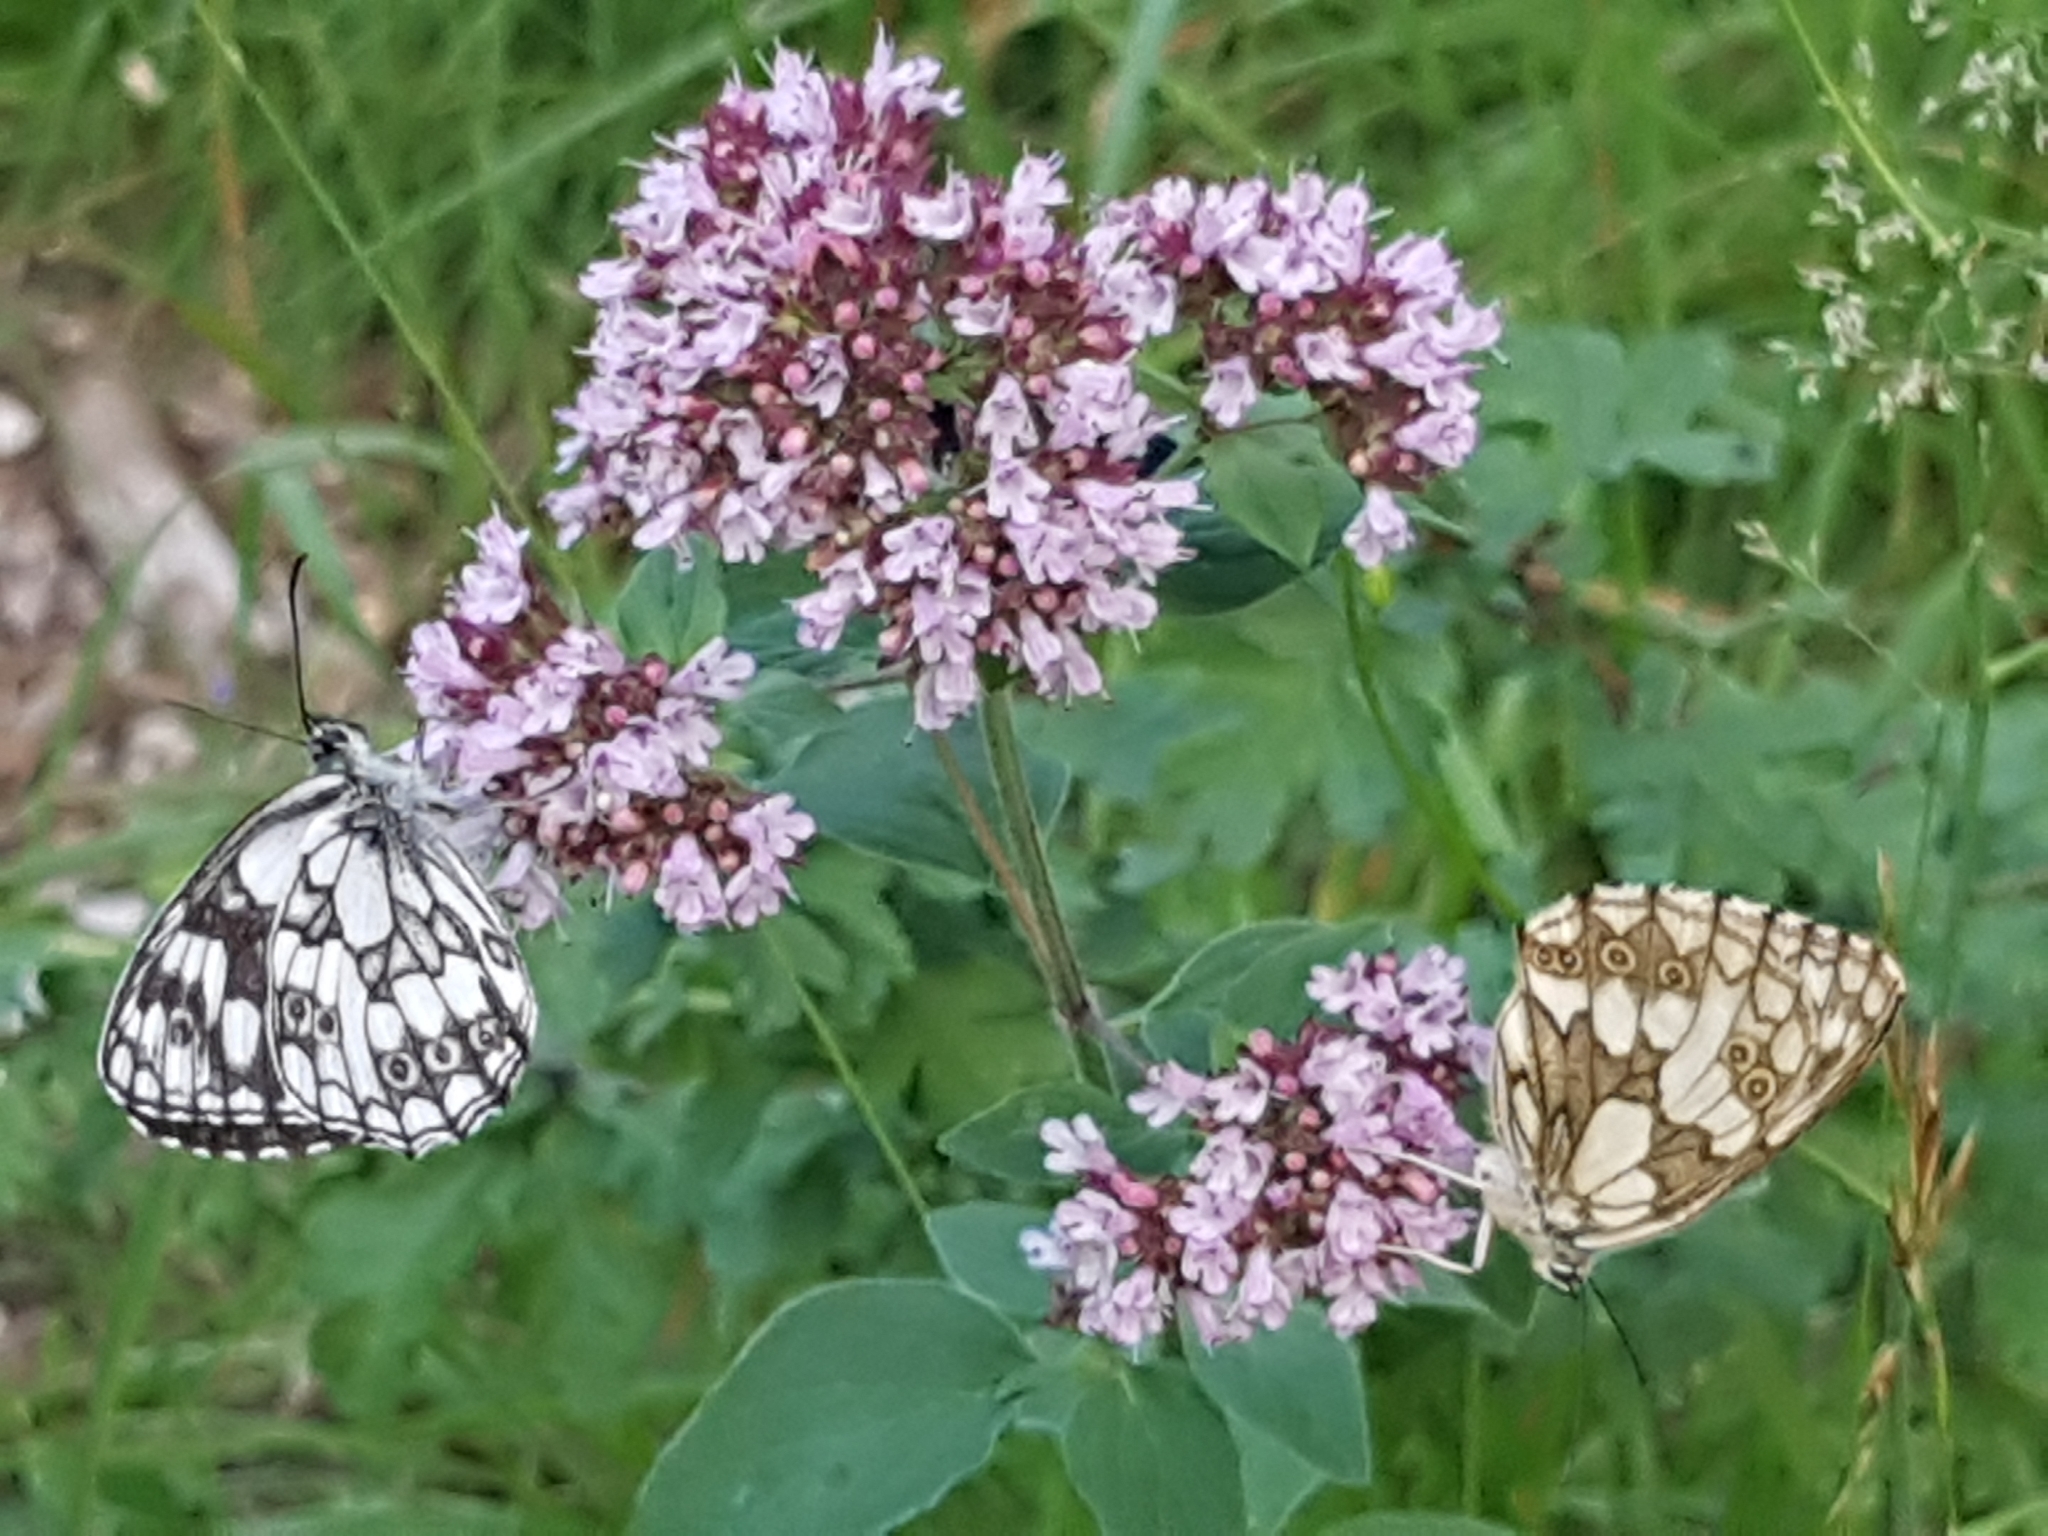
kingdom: Animalia
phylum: Arthropoda
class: Insecta
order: Lepidoptera
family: Nymphalidae
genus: Melanargia
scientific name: Melanargia galathea
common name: Marbled white
